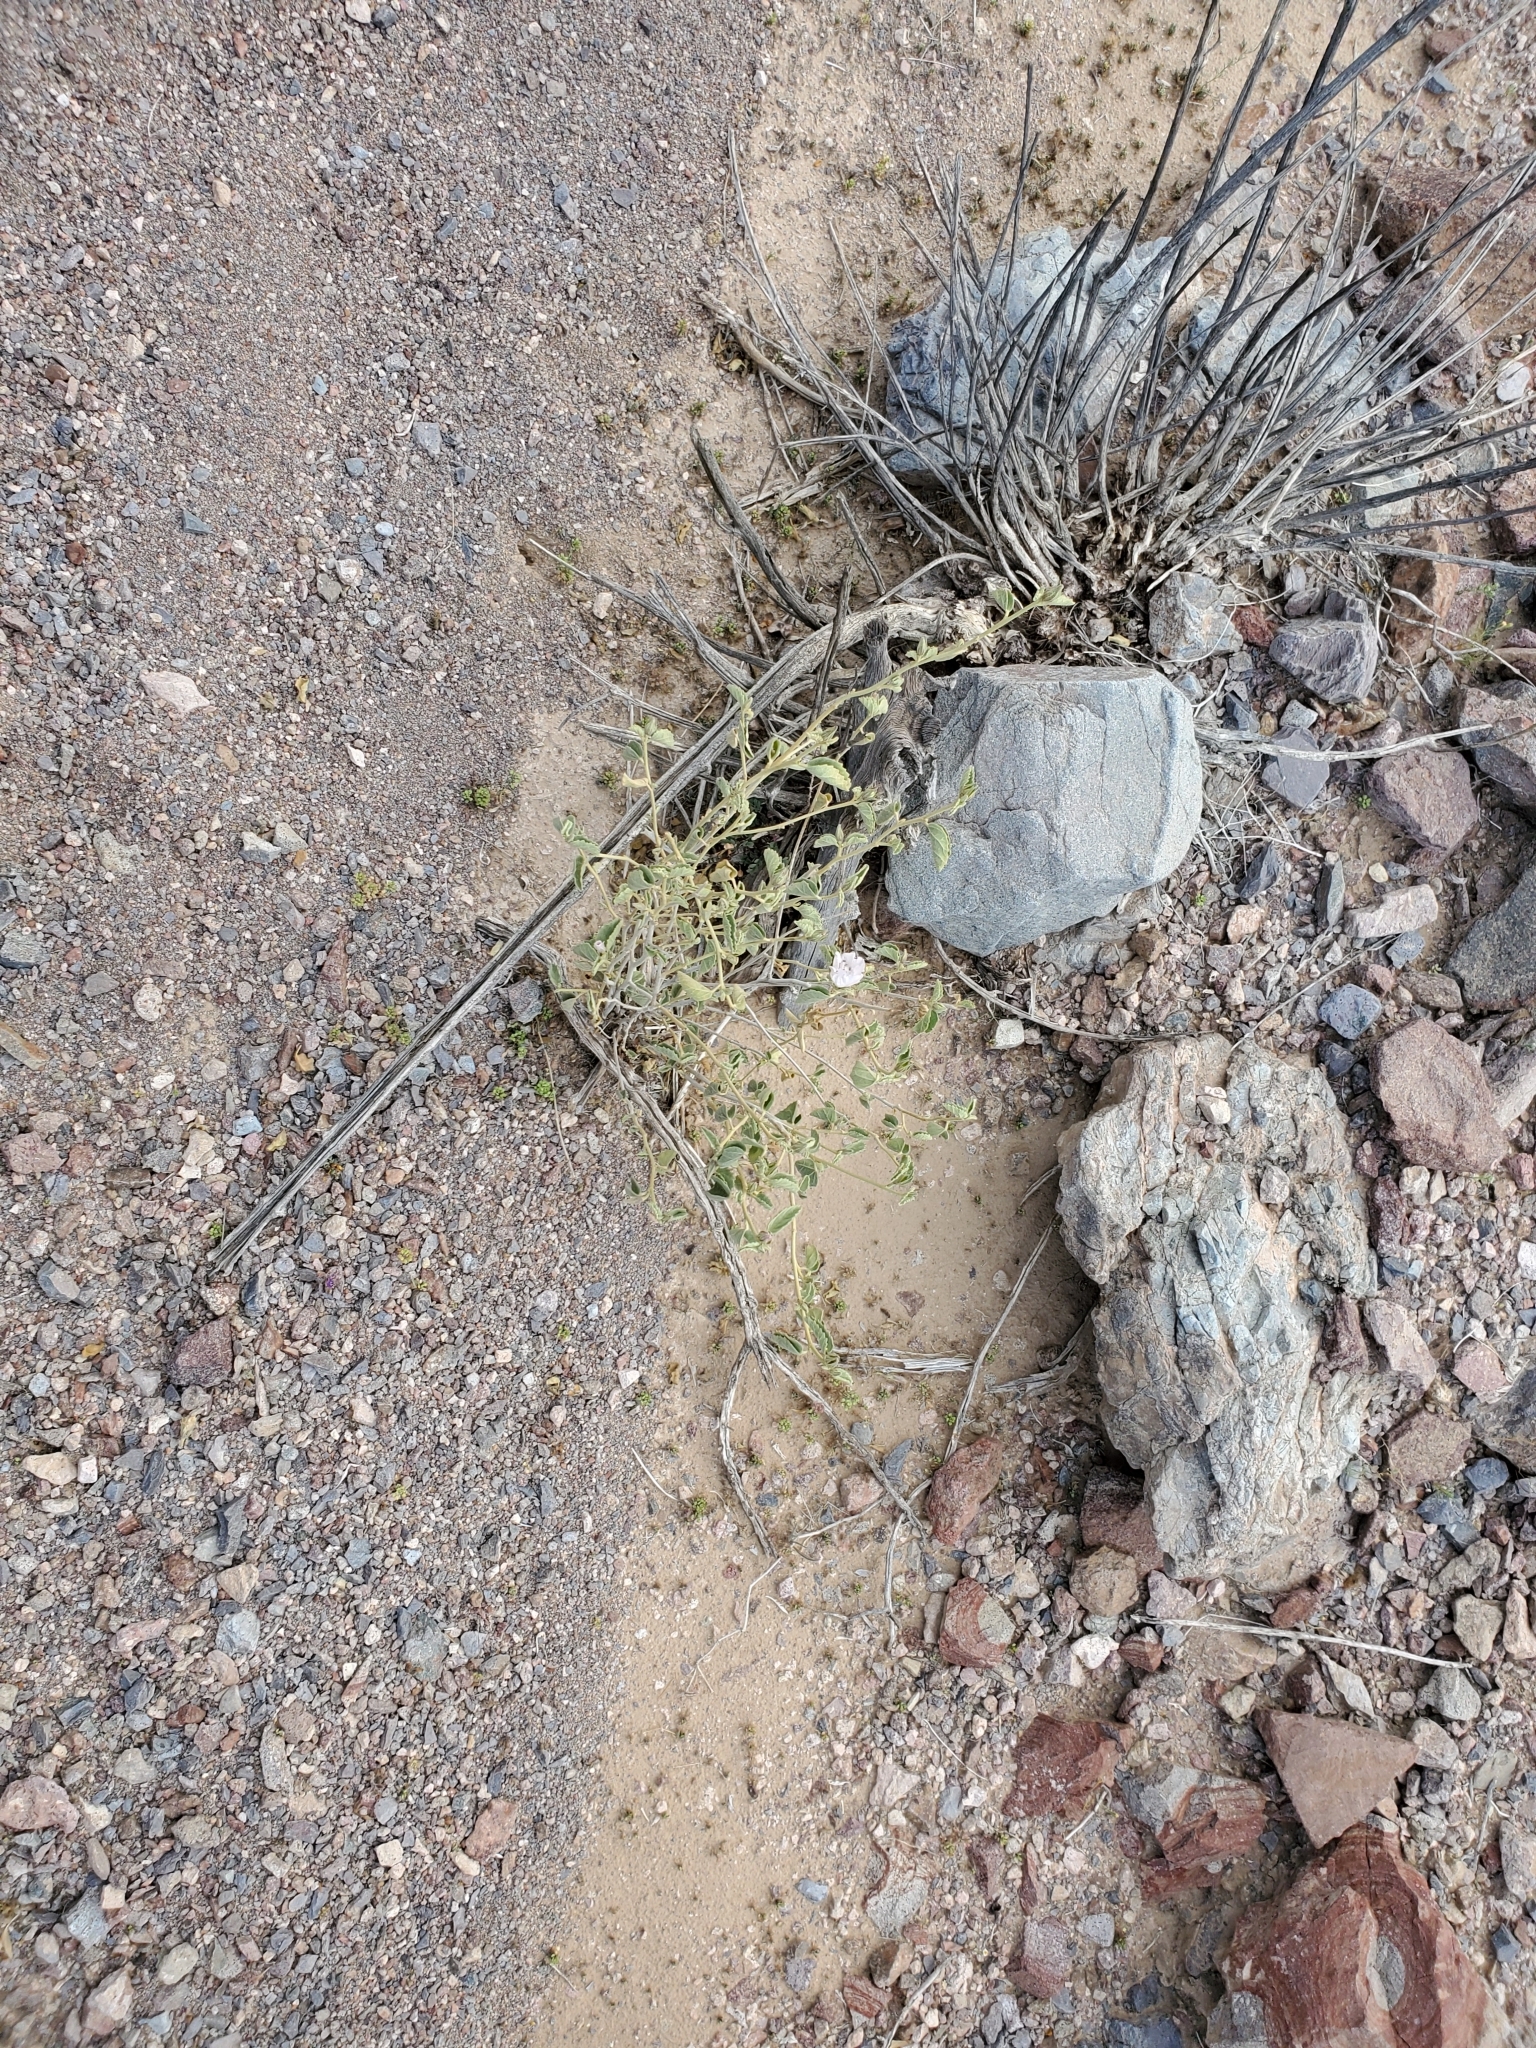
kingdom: Plantae
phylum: Tracheophyta
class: Magnoliopsida
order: Malvales
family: Malvaceae
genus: Hibiscus
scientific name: Hibiscus denudatus
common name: Paleface
